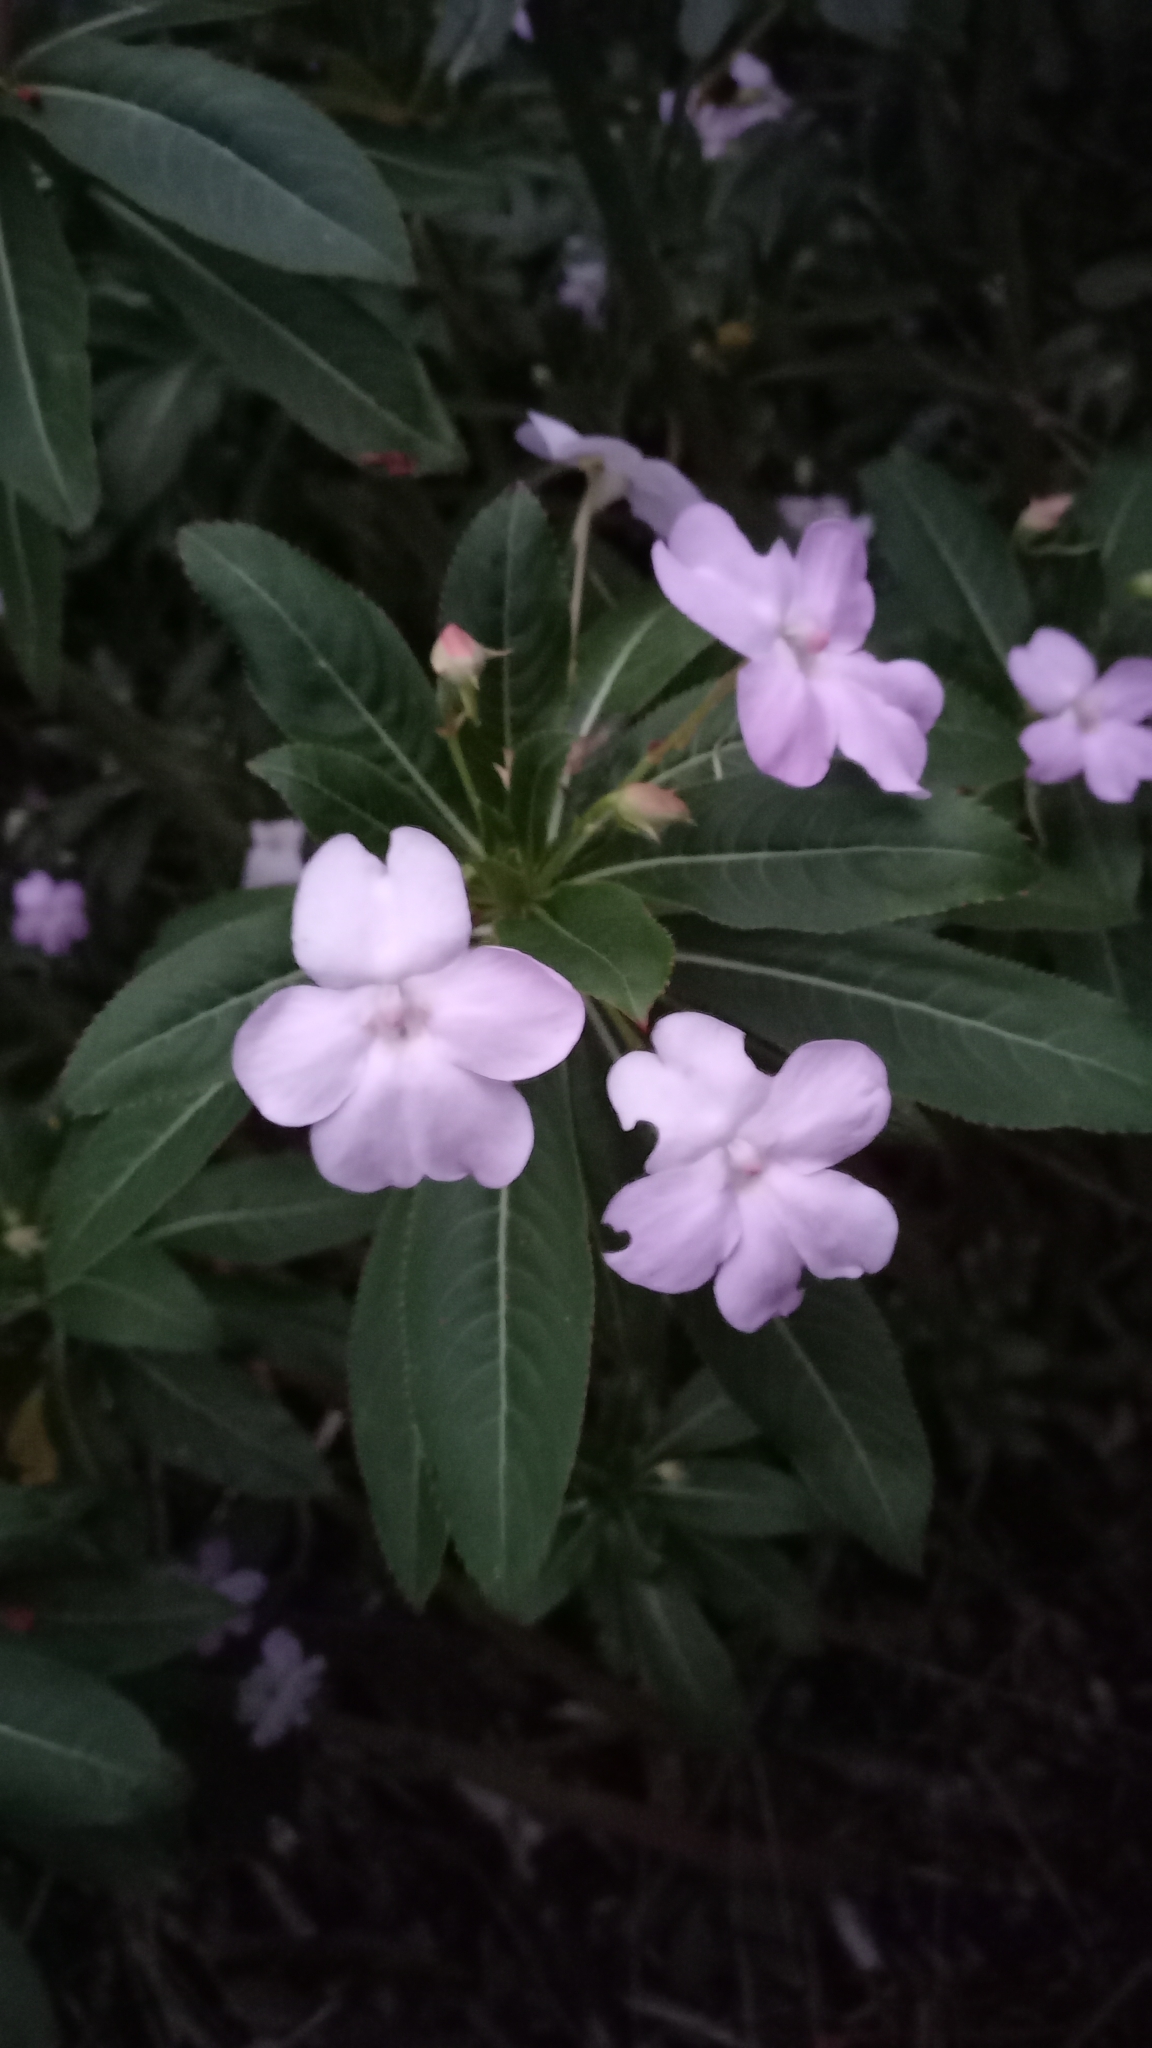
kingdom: Plantae
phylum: Tracheophyta
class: Magnoliopsida
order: Ericales
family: Balsaminaceae
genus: Impatiens
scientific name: Impatiens sodenii
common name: Oliver's touch-me-not
